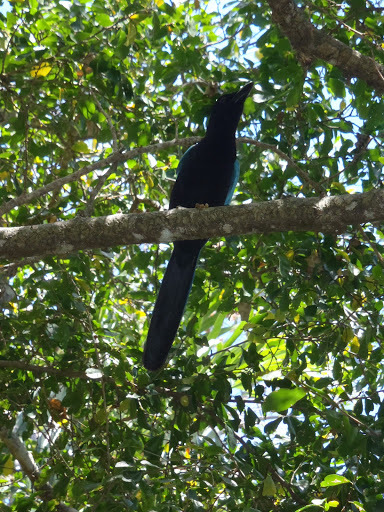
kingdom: Animalia
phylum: Chordata
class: Aves
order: Passeriformes
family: Corvidae
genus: Cyanocorax
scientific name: Cyanocorax yucatanicus
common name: Yucatan jay
